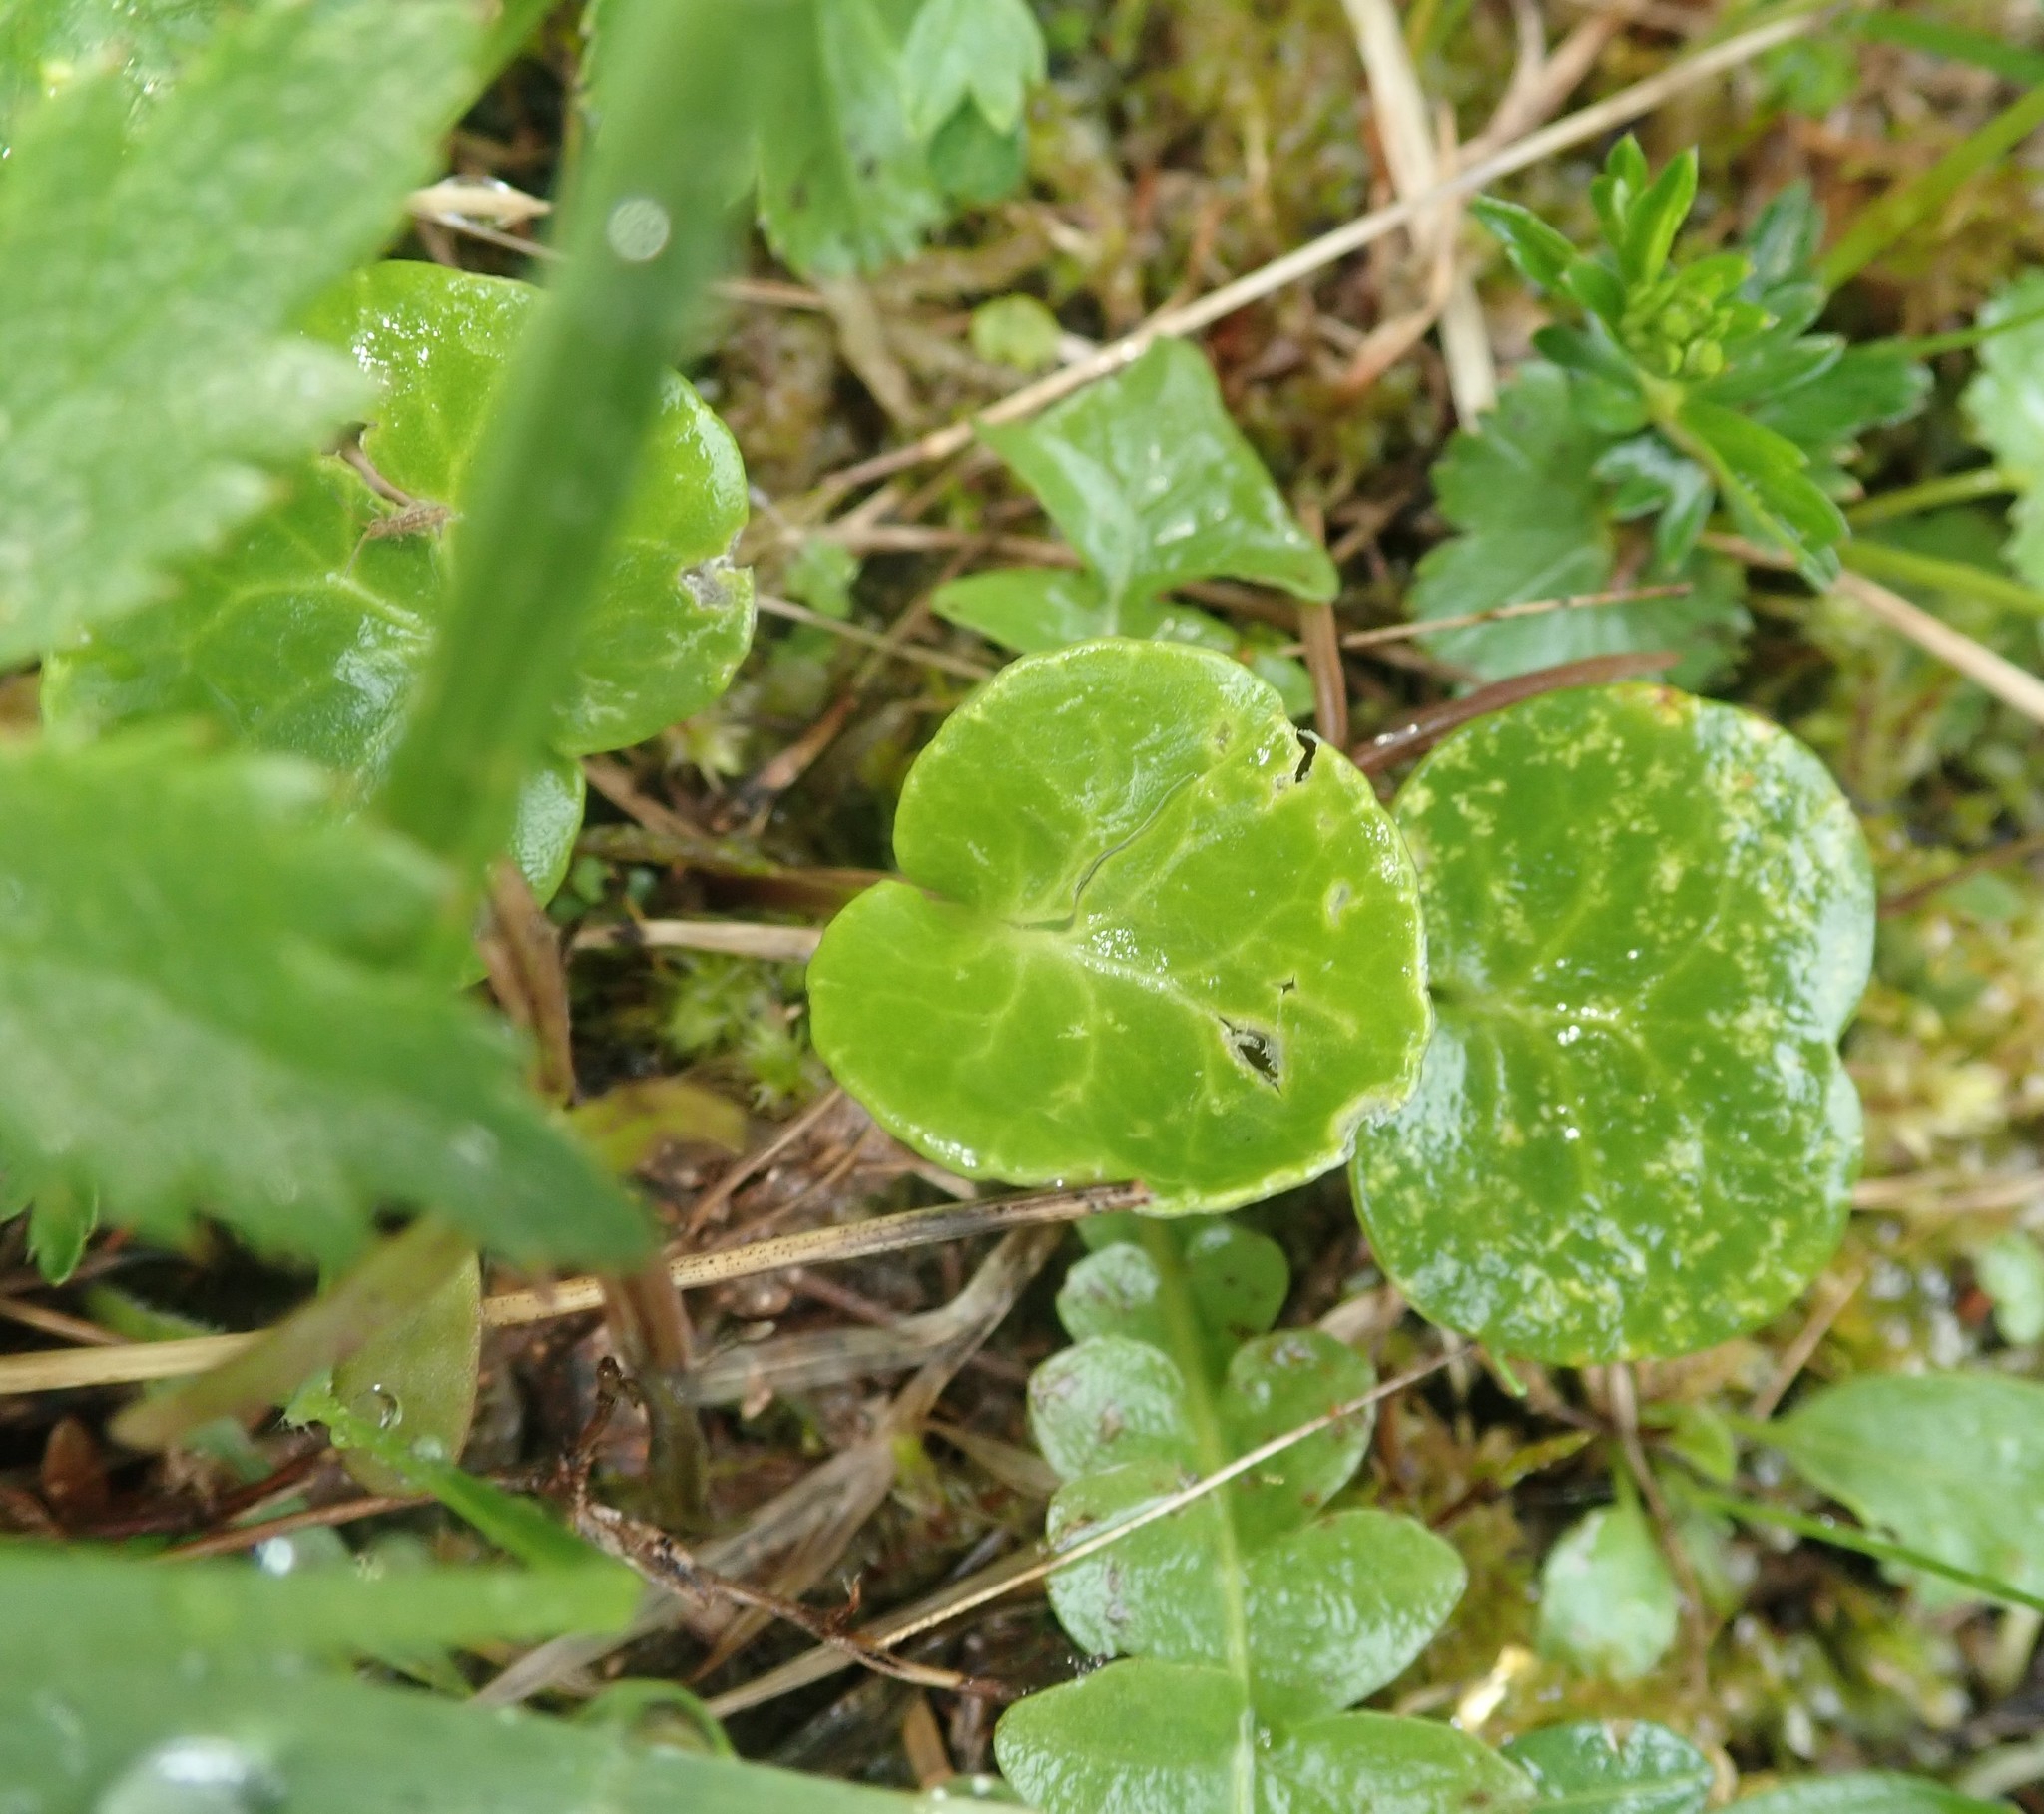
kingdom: Plantae
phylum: Tracheophyta
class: Magnoliopsida
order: Ericales
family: Primulaceae
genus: Soldanella
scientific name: Soldanella alpina
